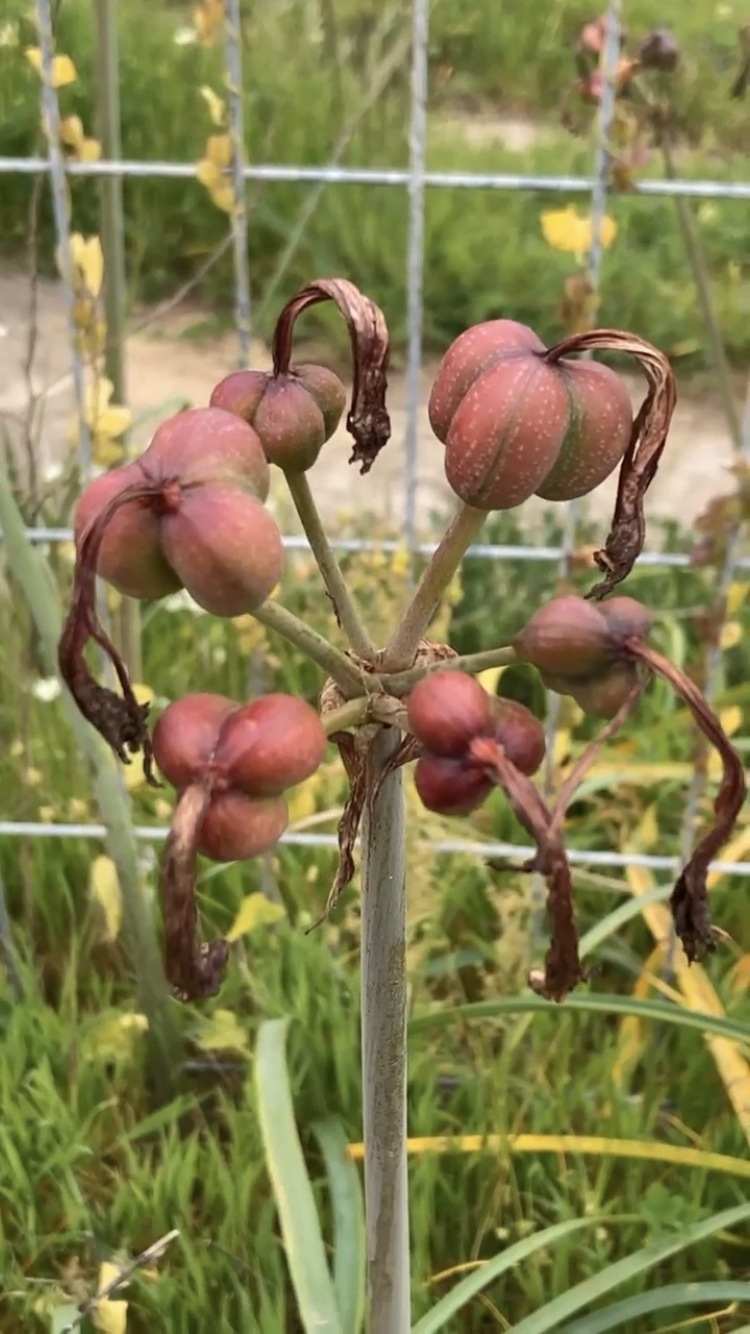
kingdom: Plantae
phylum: Tracheophyta
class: Liliopsida
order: Asparagales
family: Amaryllidaceae
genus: Phycella
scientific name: Phycella cyrtanthoides
